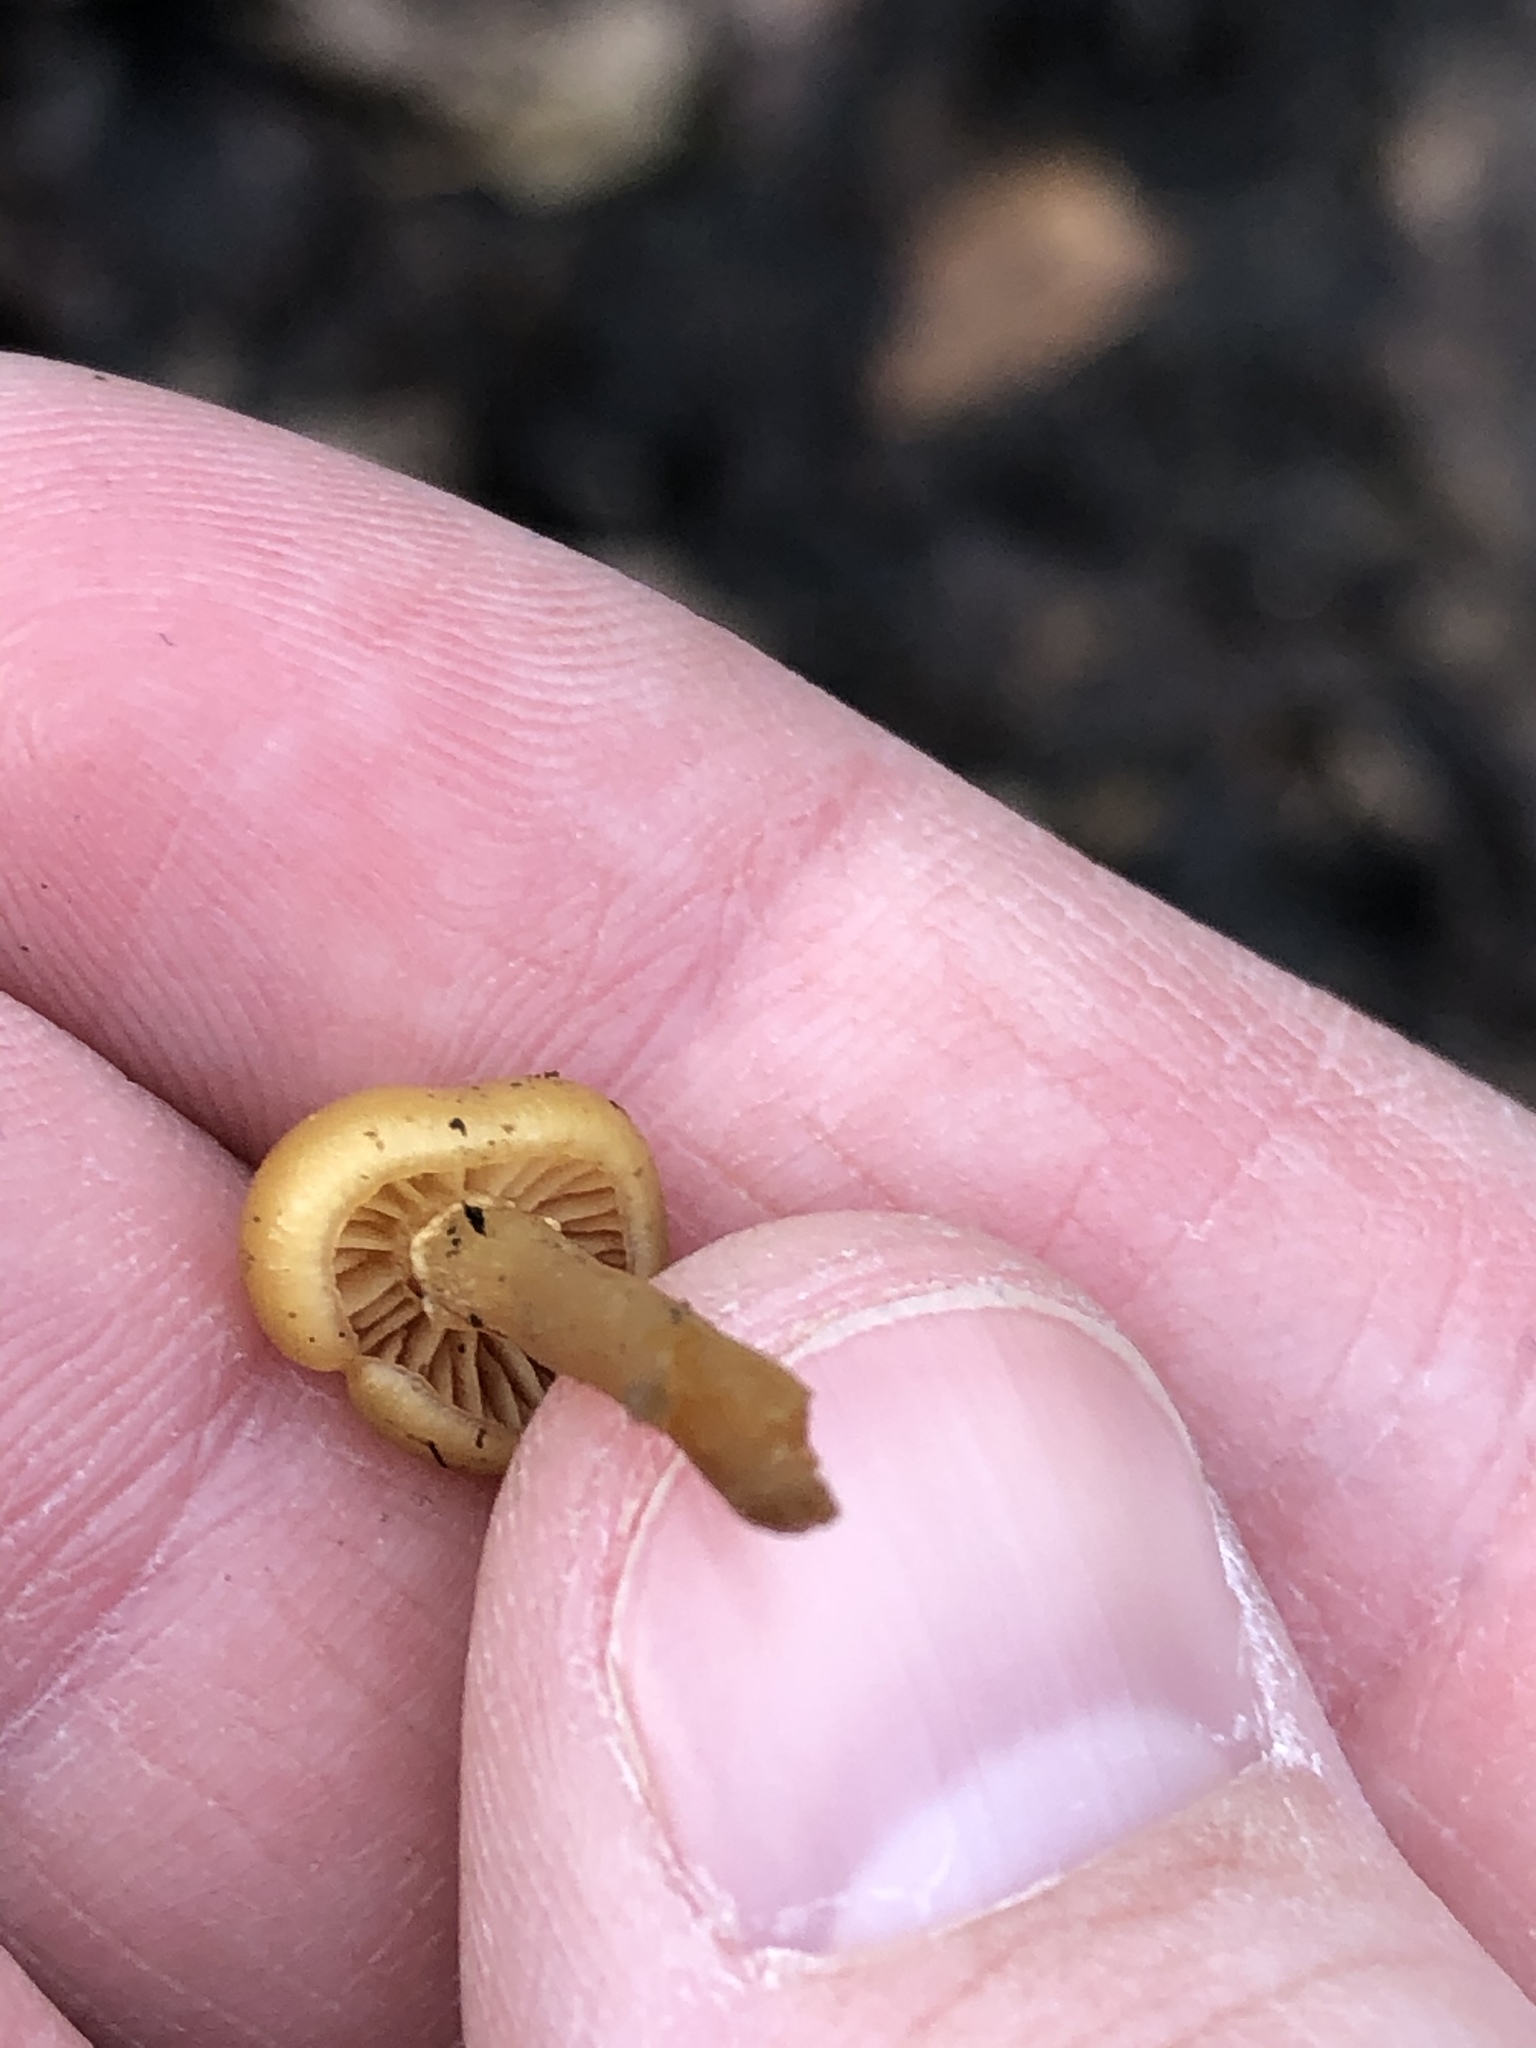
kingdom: Fungi
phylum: Basidiomycota
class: Agaricomycetes
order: Agaricales
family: Hymenogastraceae
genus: Galerina
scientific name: Galerina marginata
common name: Funeral bell
